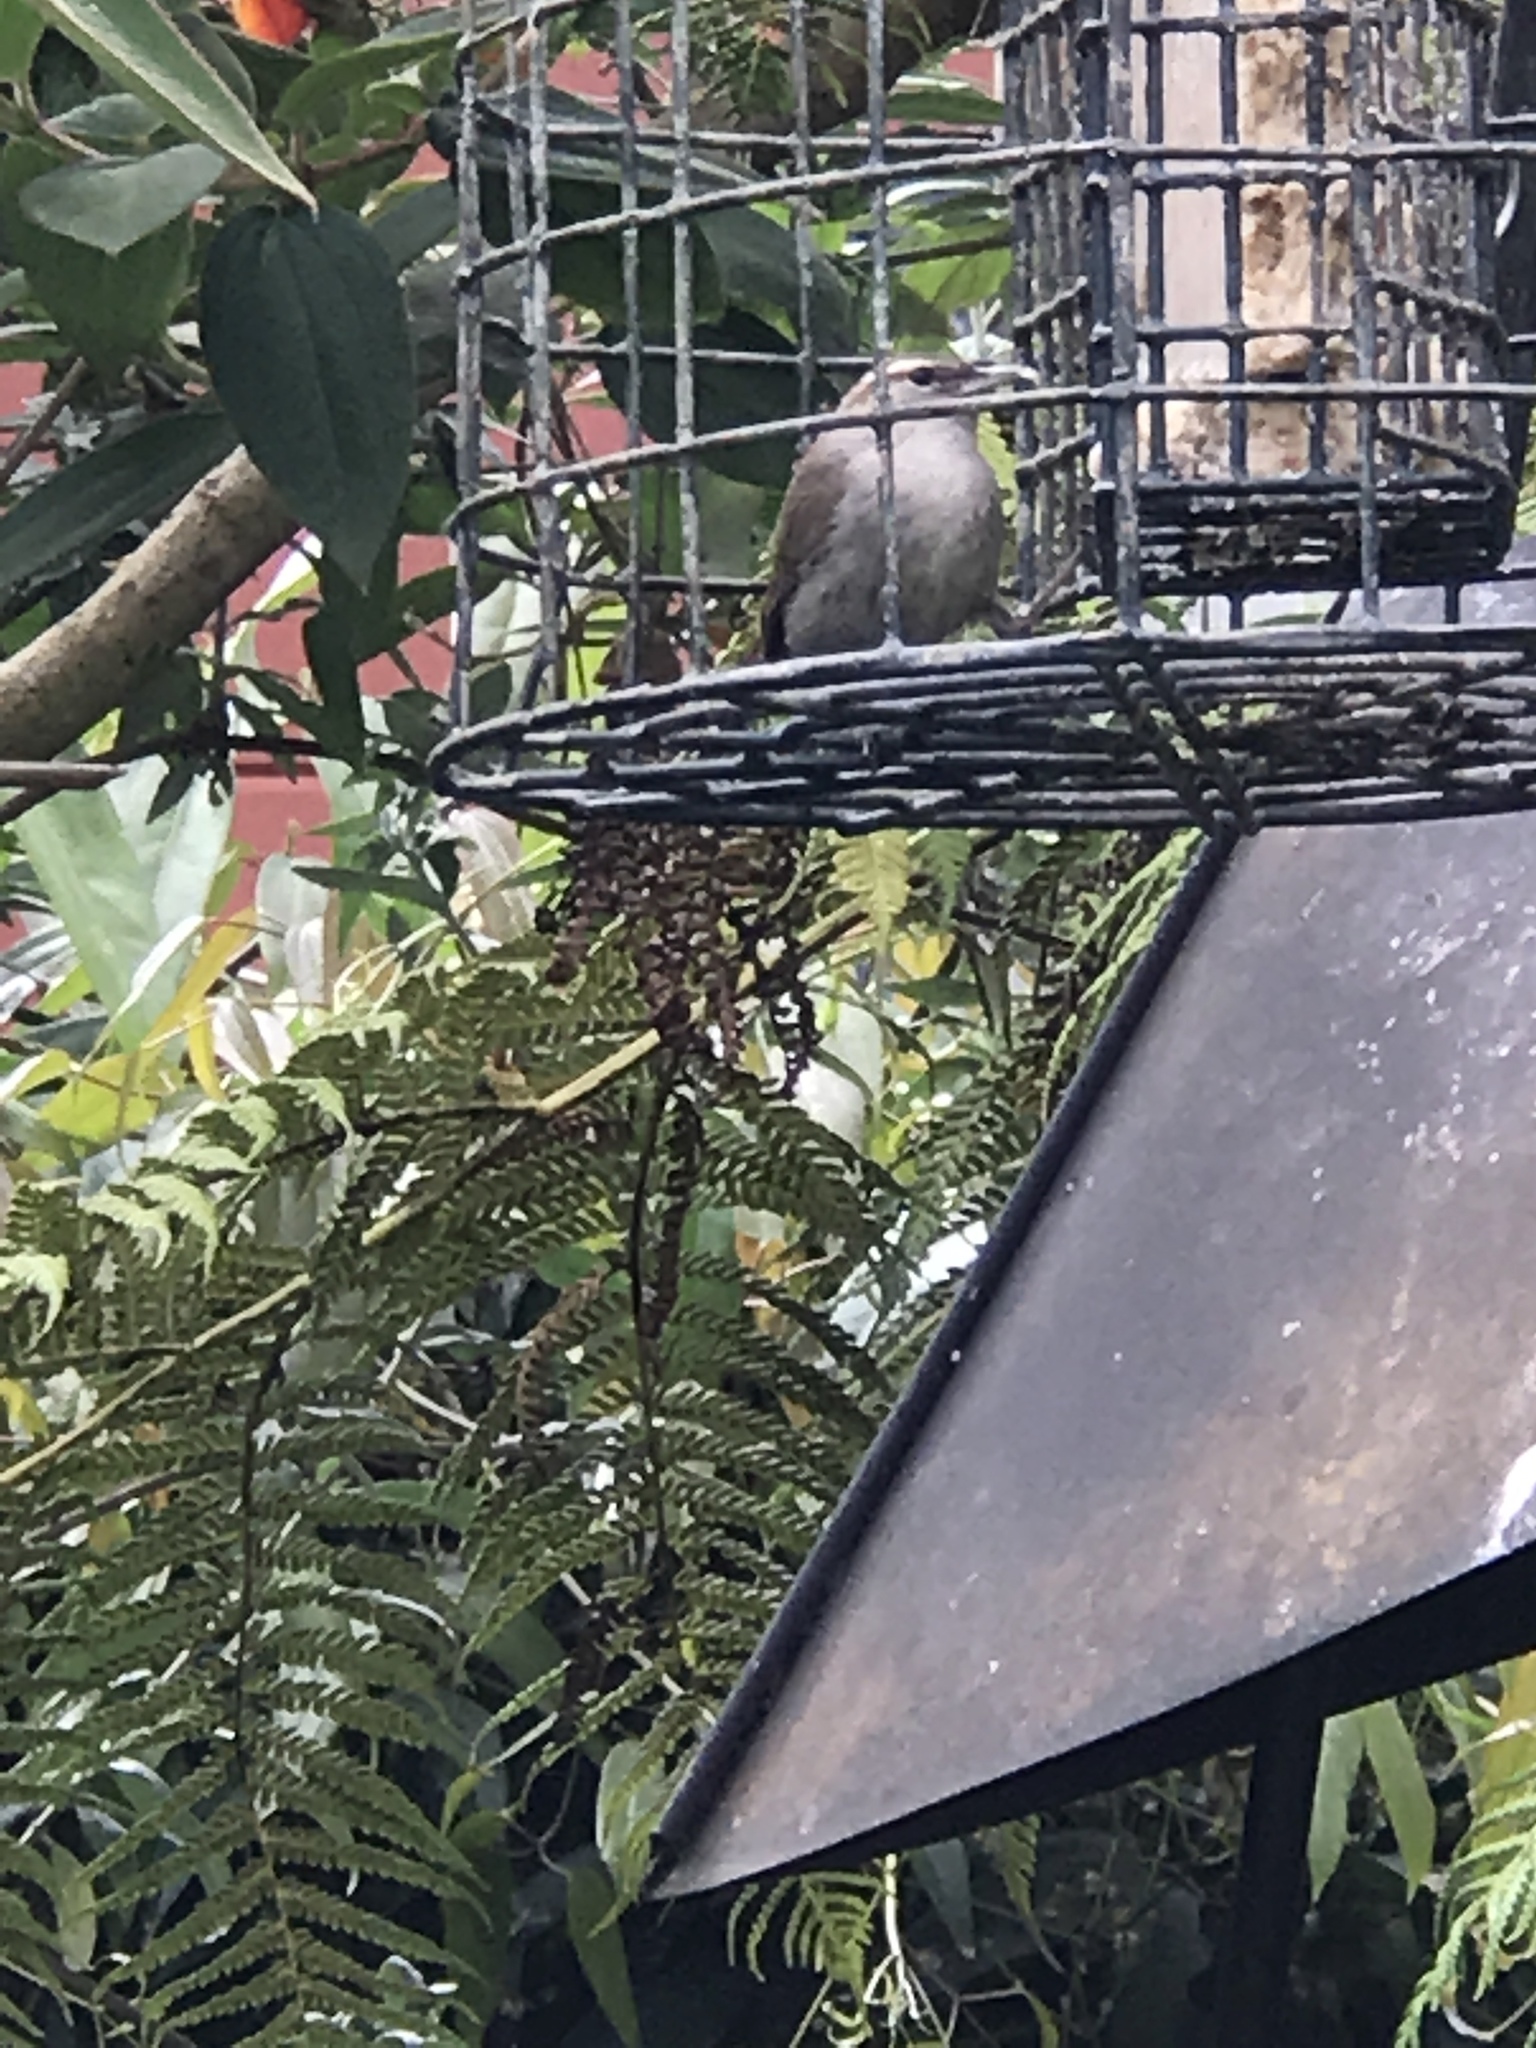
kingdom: Animalia
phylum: Chordata
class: Aves
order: Passeriformes
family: Troglodytidae
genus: Thryomanes
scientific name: Thryomanes bewickii
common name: Bewick's wren
